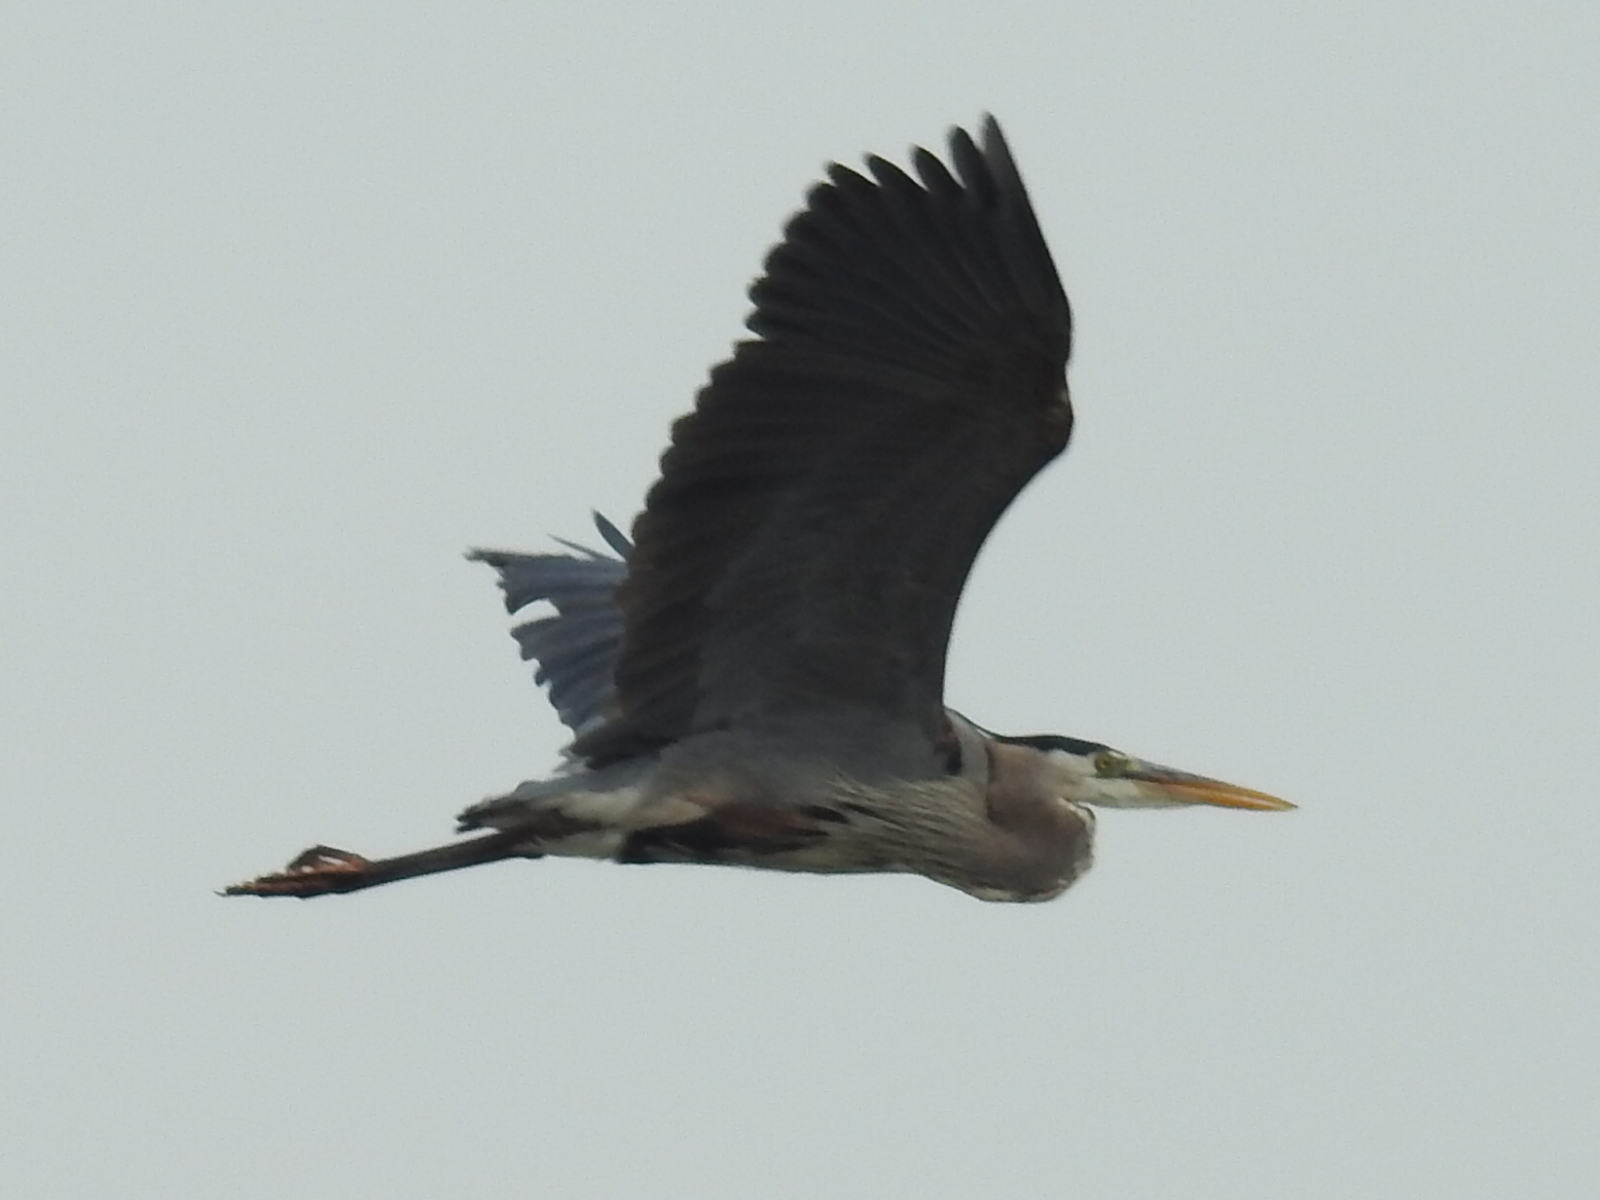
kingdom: Animalia
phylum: Chordata
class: Aves
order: Pelecaniformes
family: Ardeidae
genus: Ardea
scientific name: Ardea herodias
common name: Great blue heron
